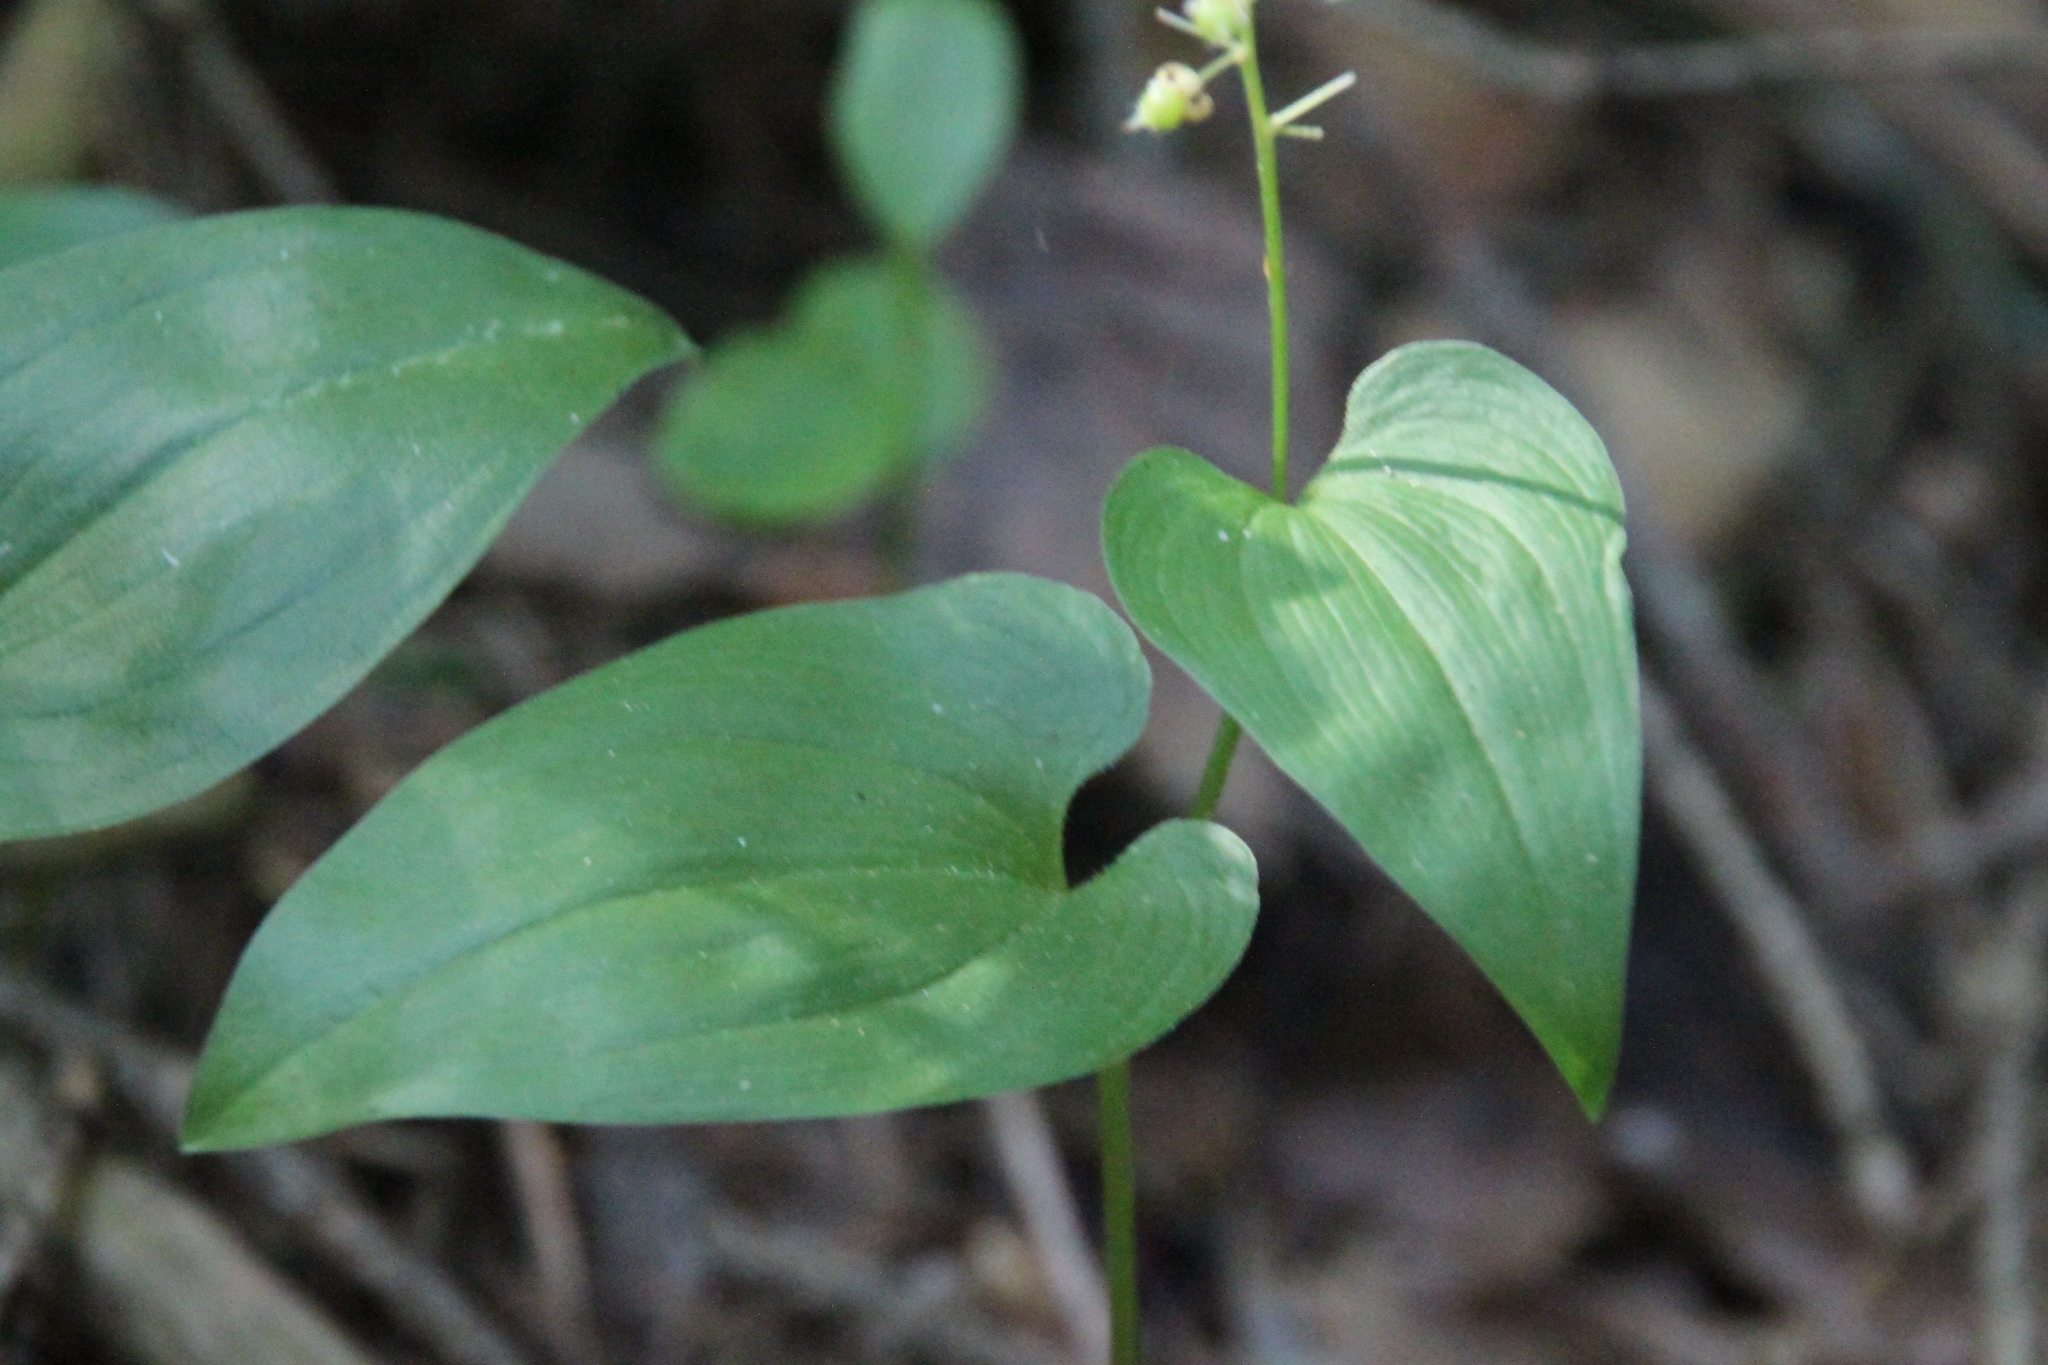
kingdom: Plantae
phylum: Tracheophyta
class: Liliopsida
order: Asparagales
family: Asparagaceae
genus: Maianthemum
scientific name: Maianthemum bifolium
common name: May lily
